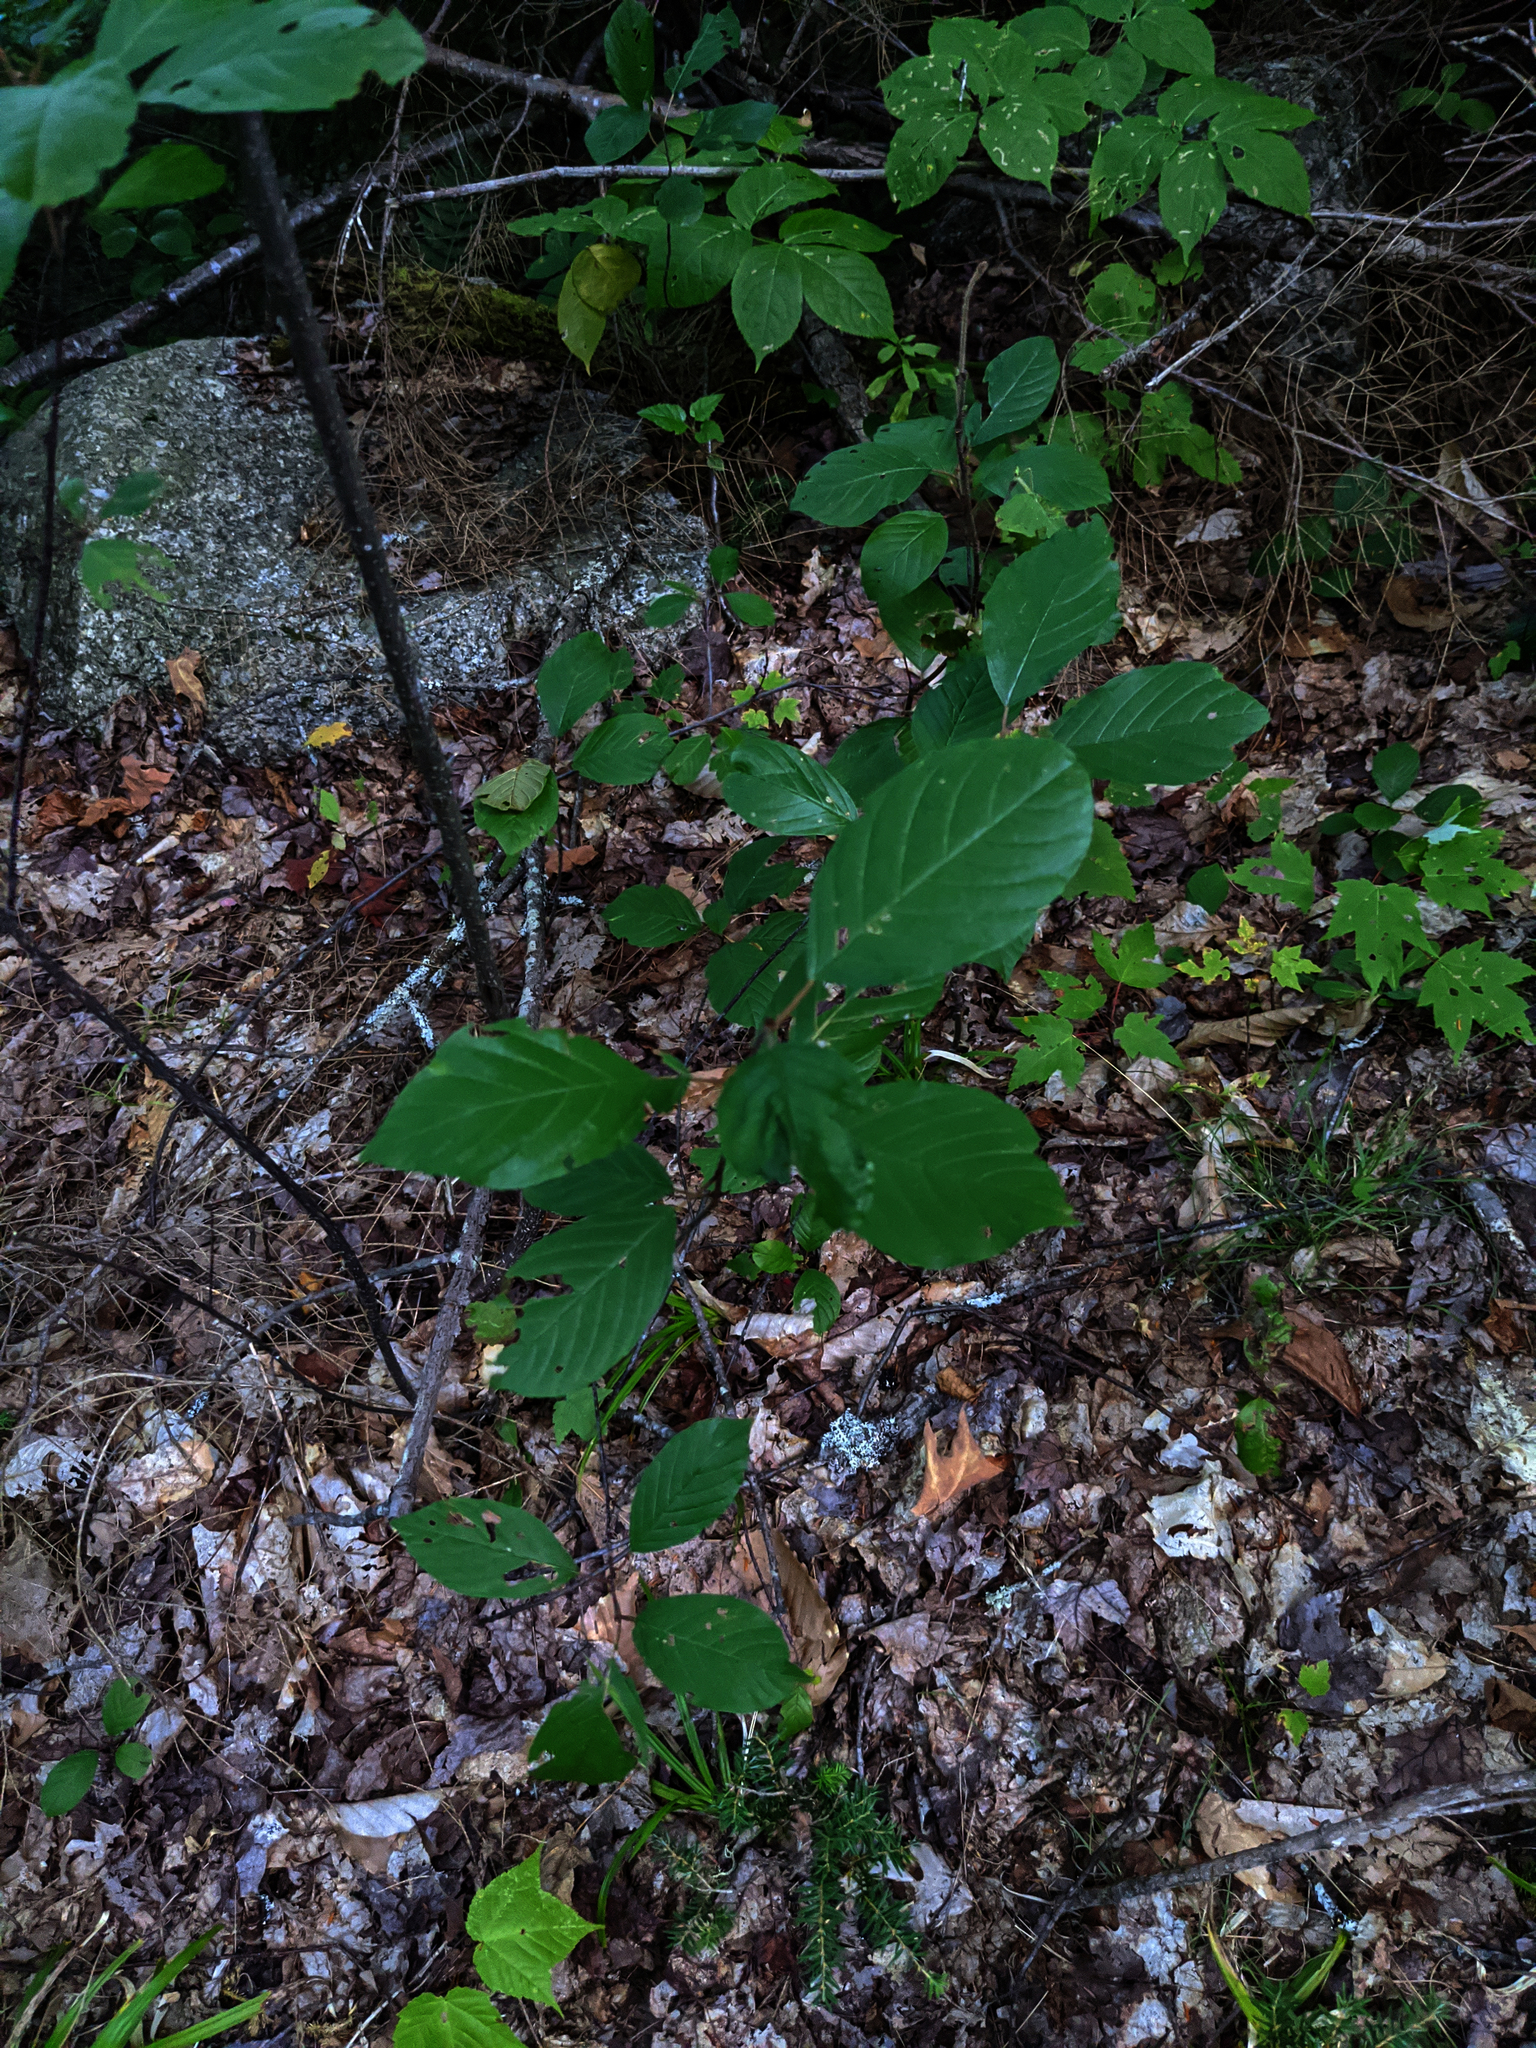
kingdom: Plantae
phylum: Tracheophyta
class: Magnoliopsida
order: Rosales
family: Rhamnaceae
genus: Frangula
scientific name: Frangula alnus
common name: Alder buckthorn
